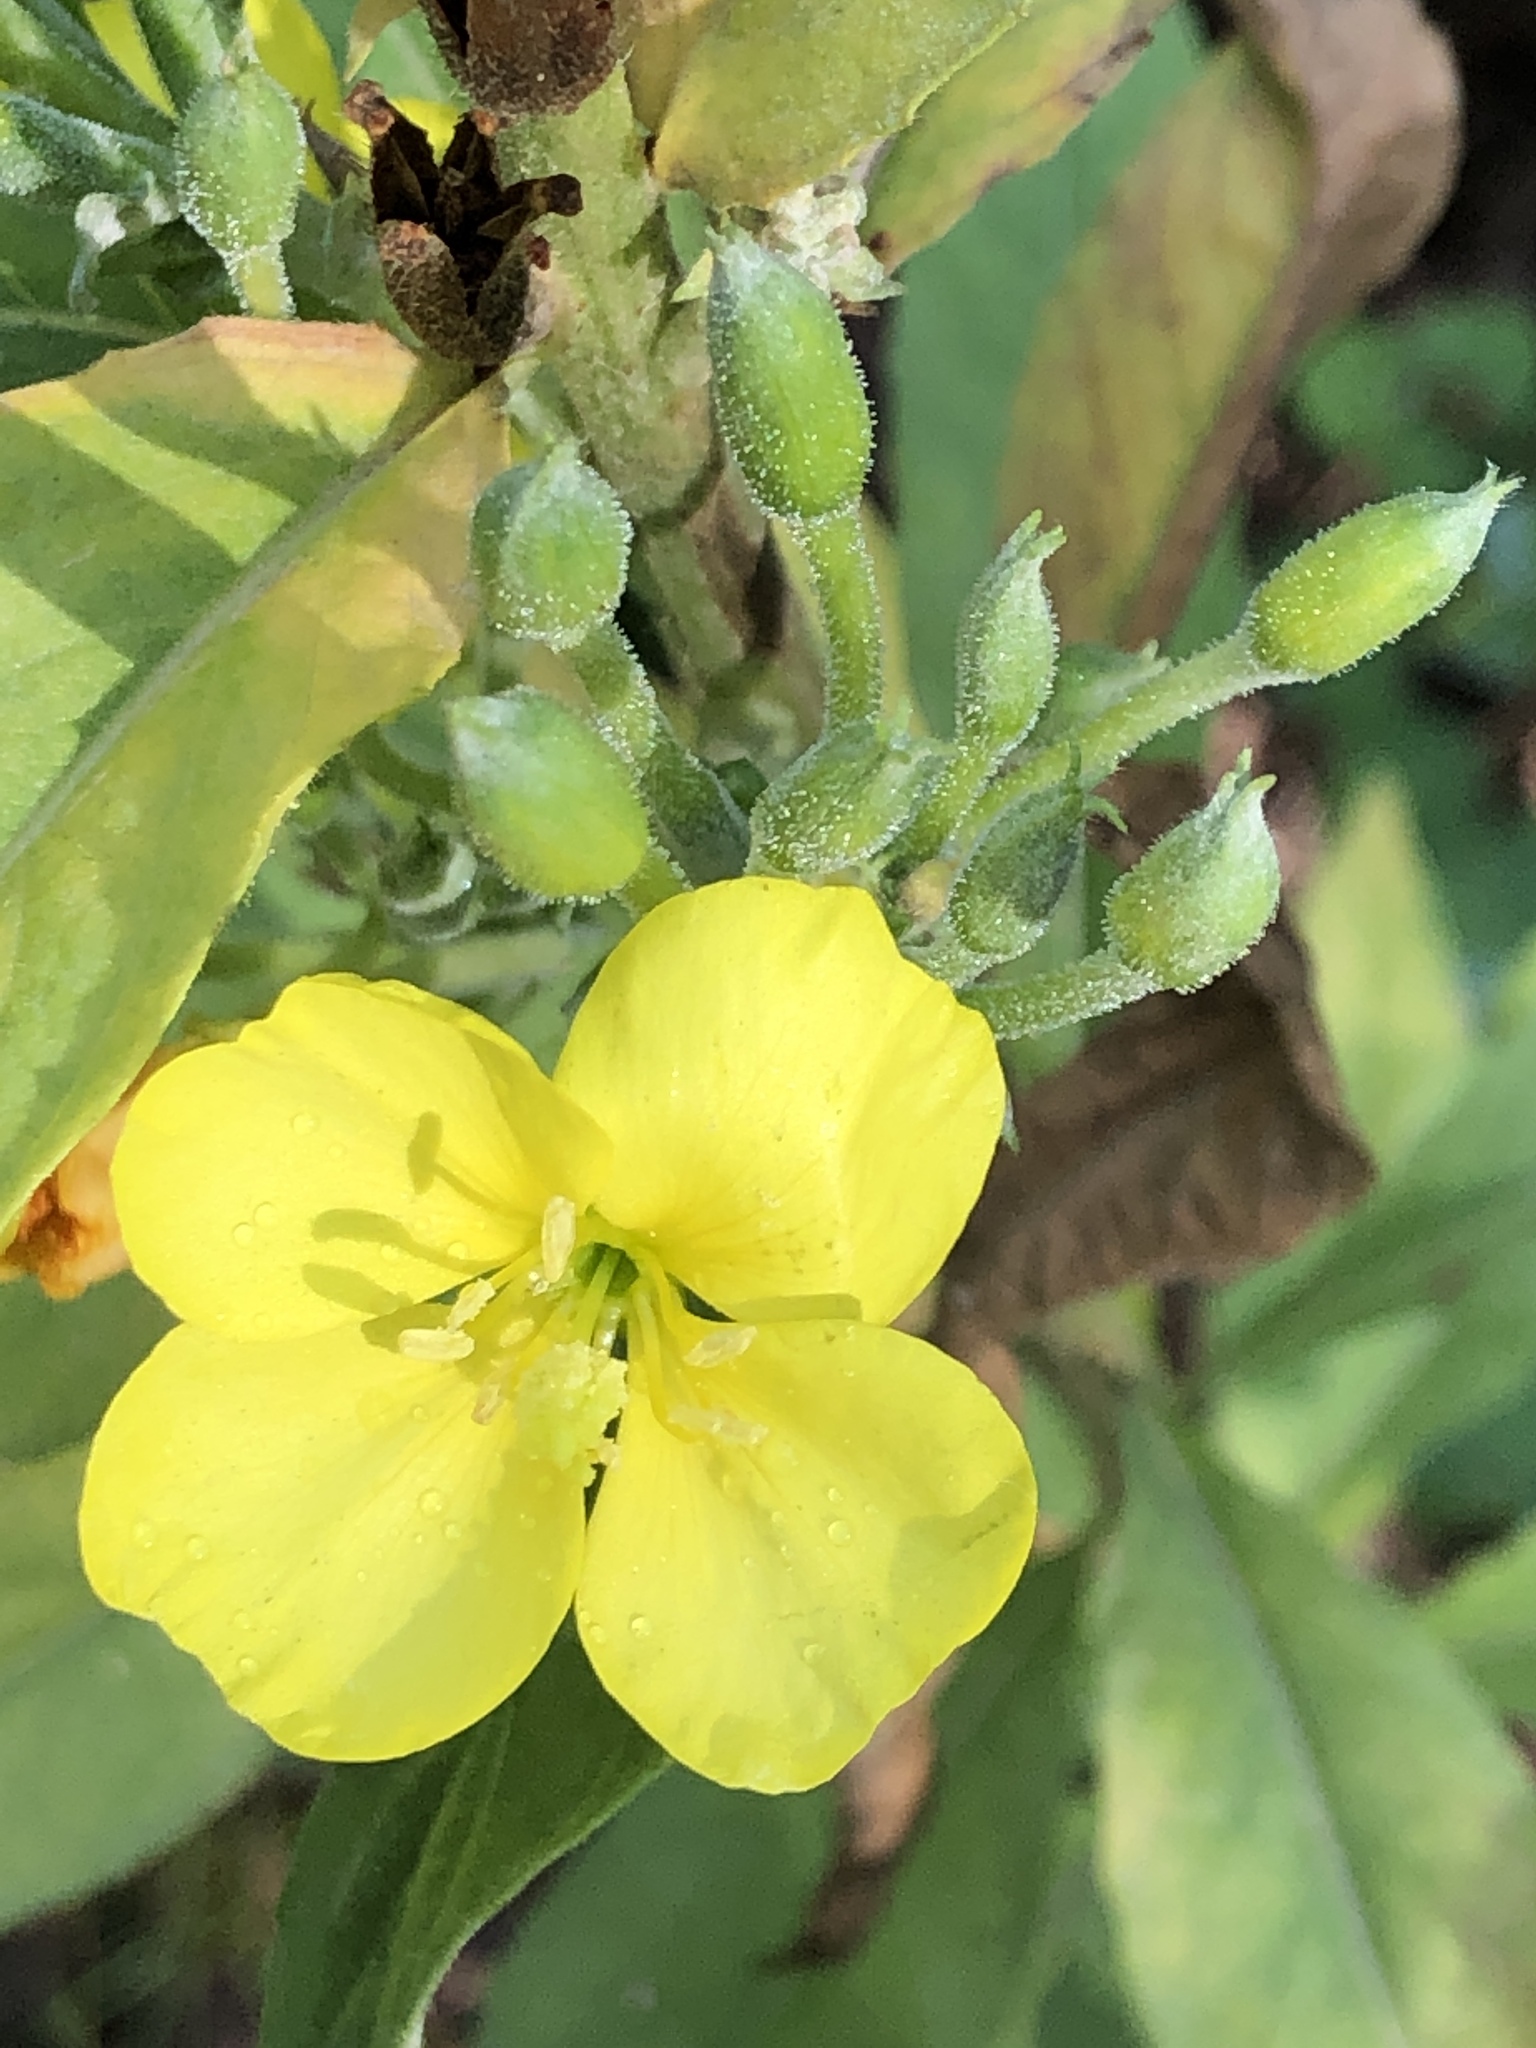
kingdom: Plantae
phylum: Tracheophyta
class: Magnoliopsida
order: Myrtales
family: Onagraceae
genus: Oenothera
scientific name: Oenothera biennis
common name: Common evening-primrose
